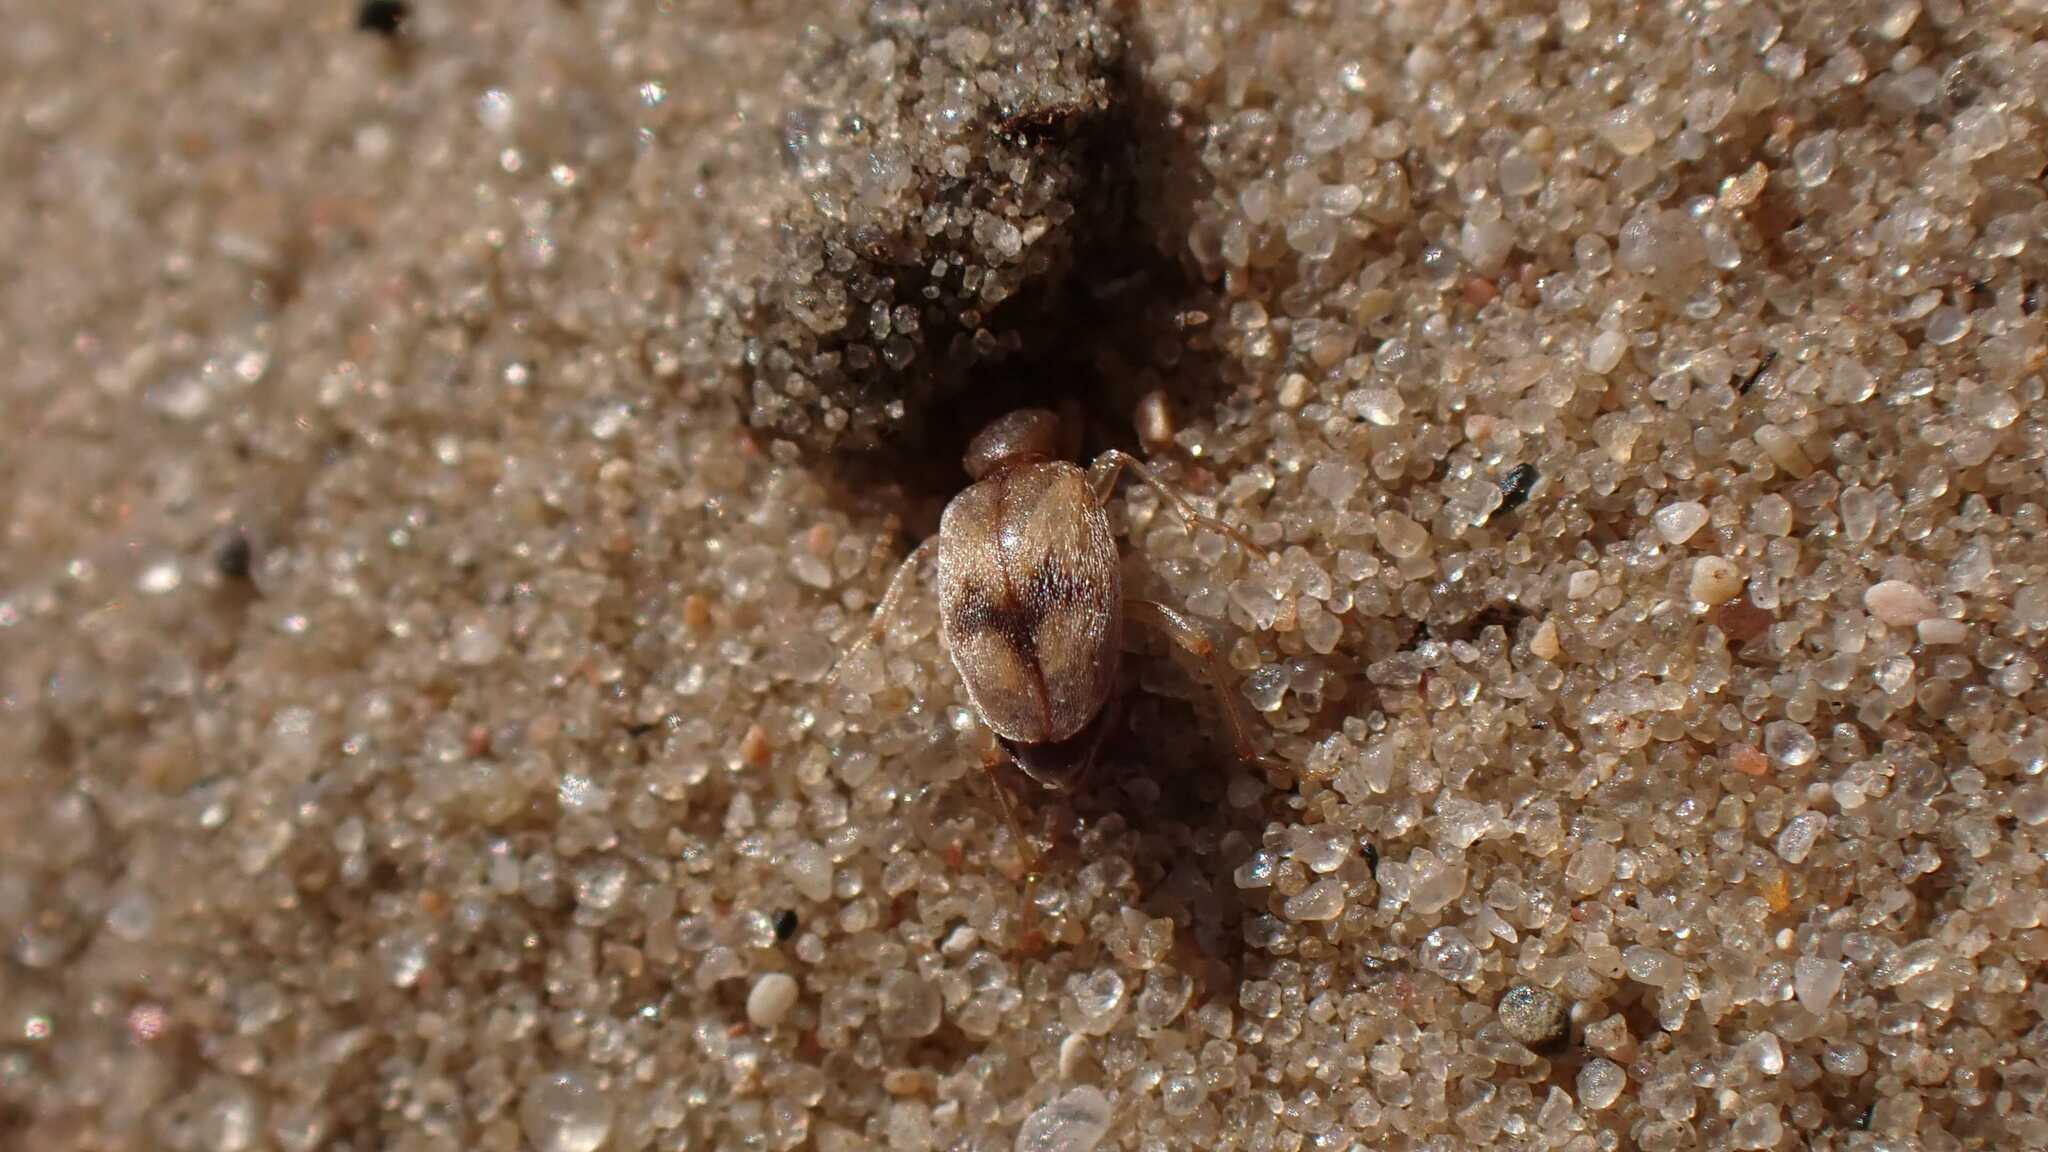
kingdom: Animalia
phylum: Arthropoda
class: Insecta
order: Coleoptera
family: Anthicidae
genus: Anthicus
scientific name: Anthicus bimaculatus
